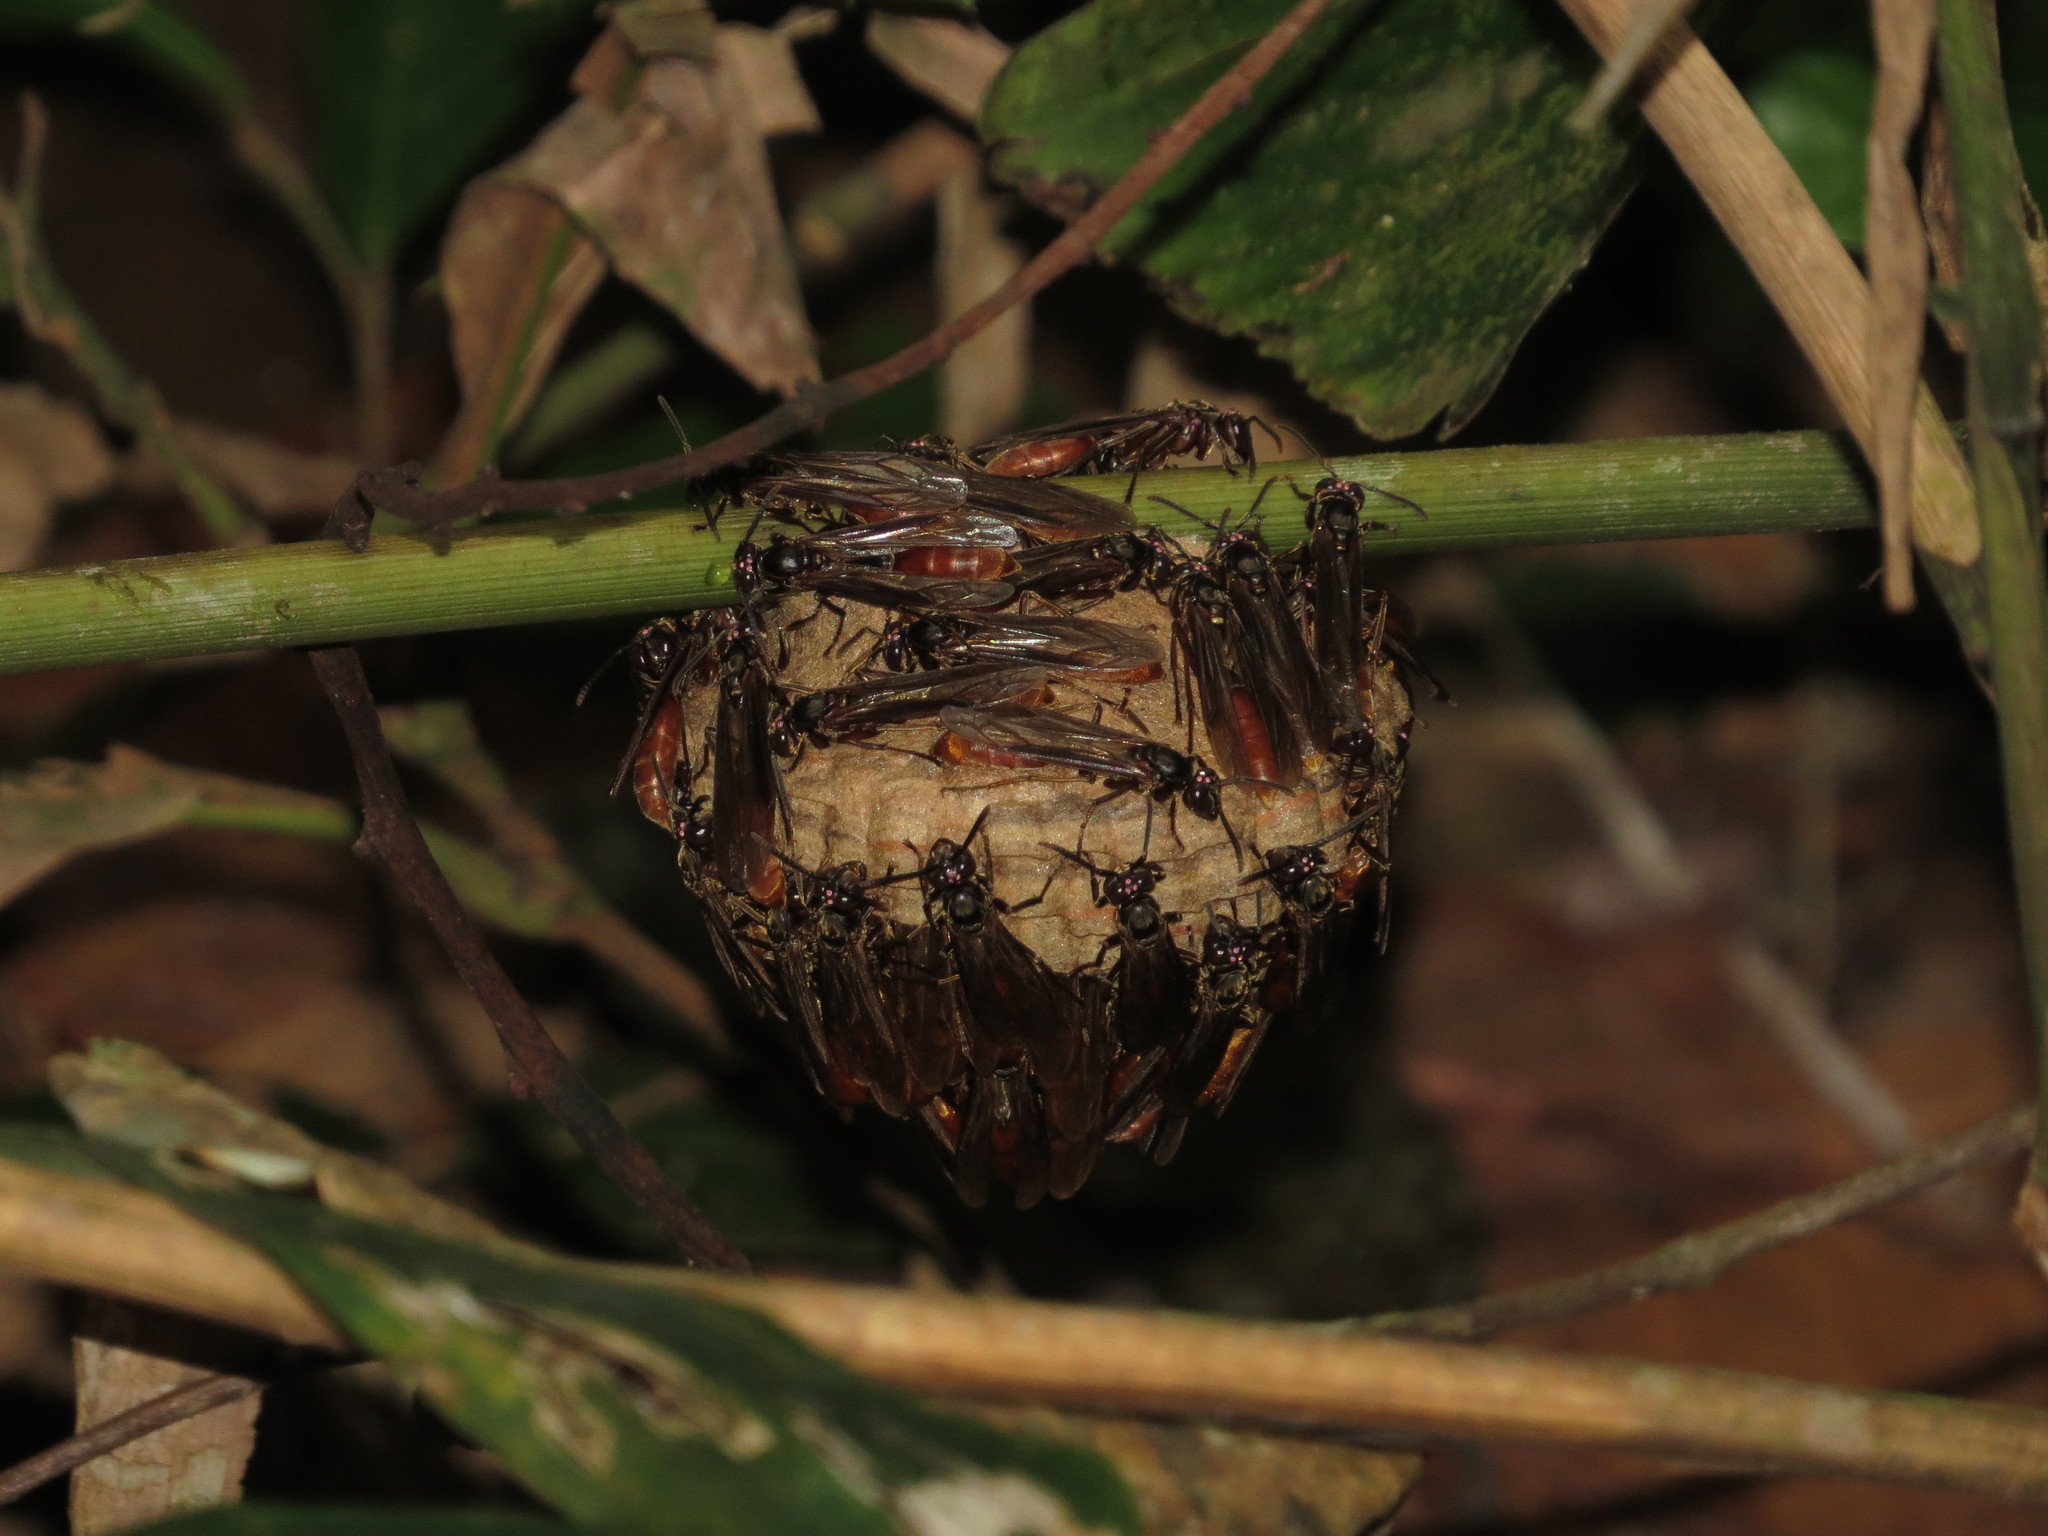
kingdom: Animalia
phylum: Arthropoda
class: Insecta
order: Hymenoptera
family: Vespidae
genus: Apoica
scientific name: Apoica thoracica
